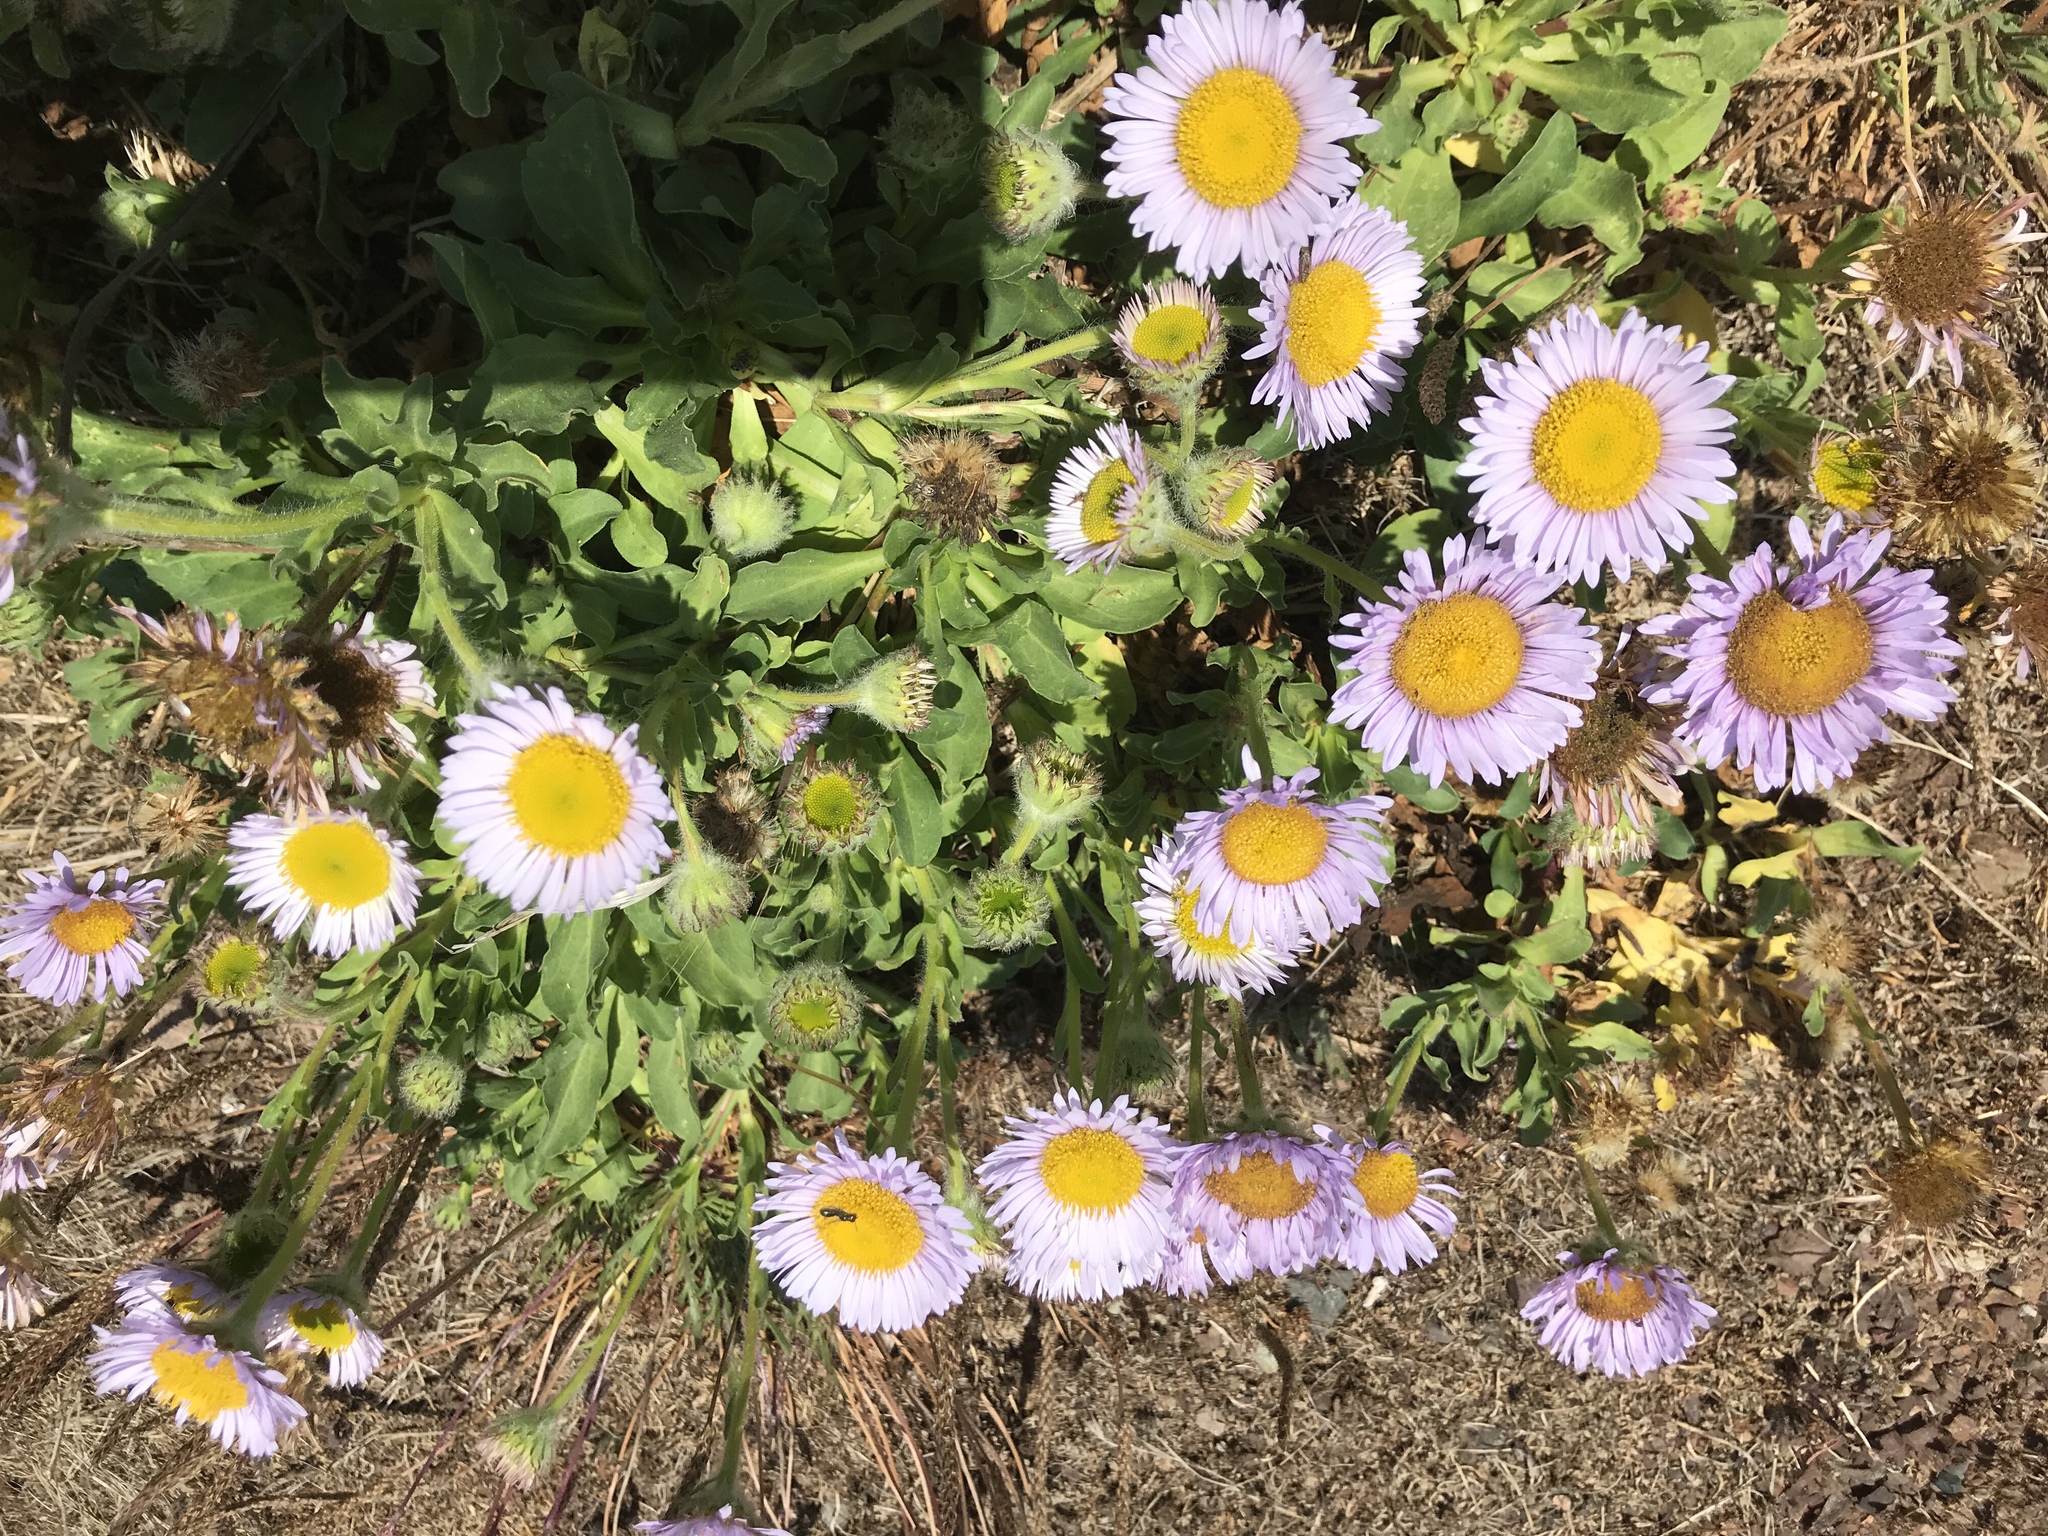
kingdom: Plantae
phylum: Tracheophyta
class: Magnoliopsida
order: Asterales
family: Asteraceae
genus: Erigeron
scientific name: Erigeron glaucus
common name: Seaside daisy
